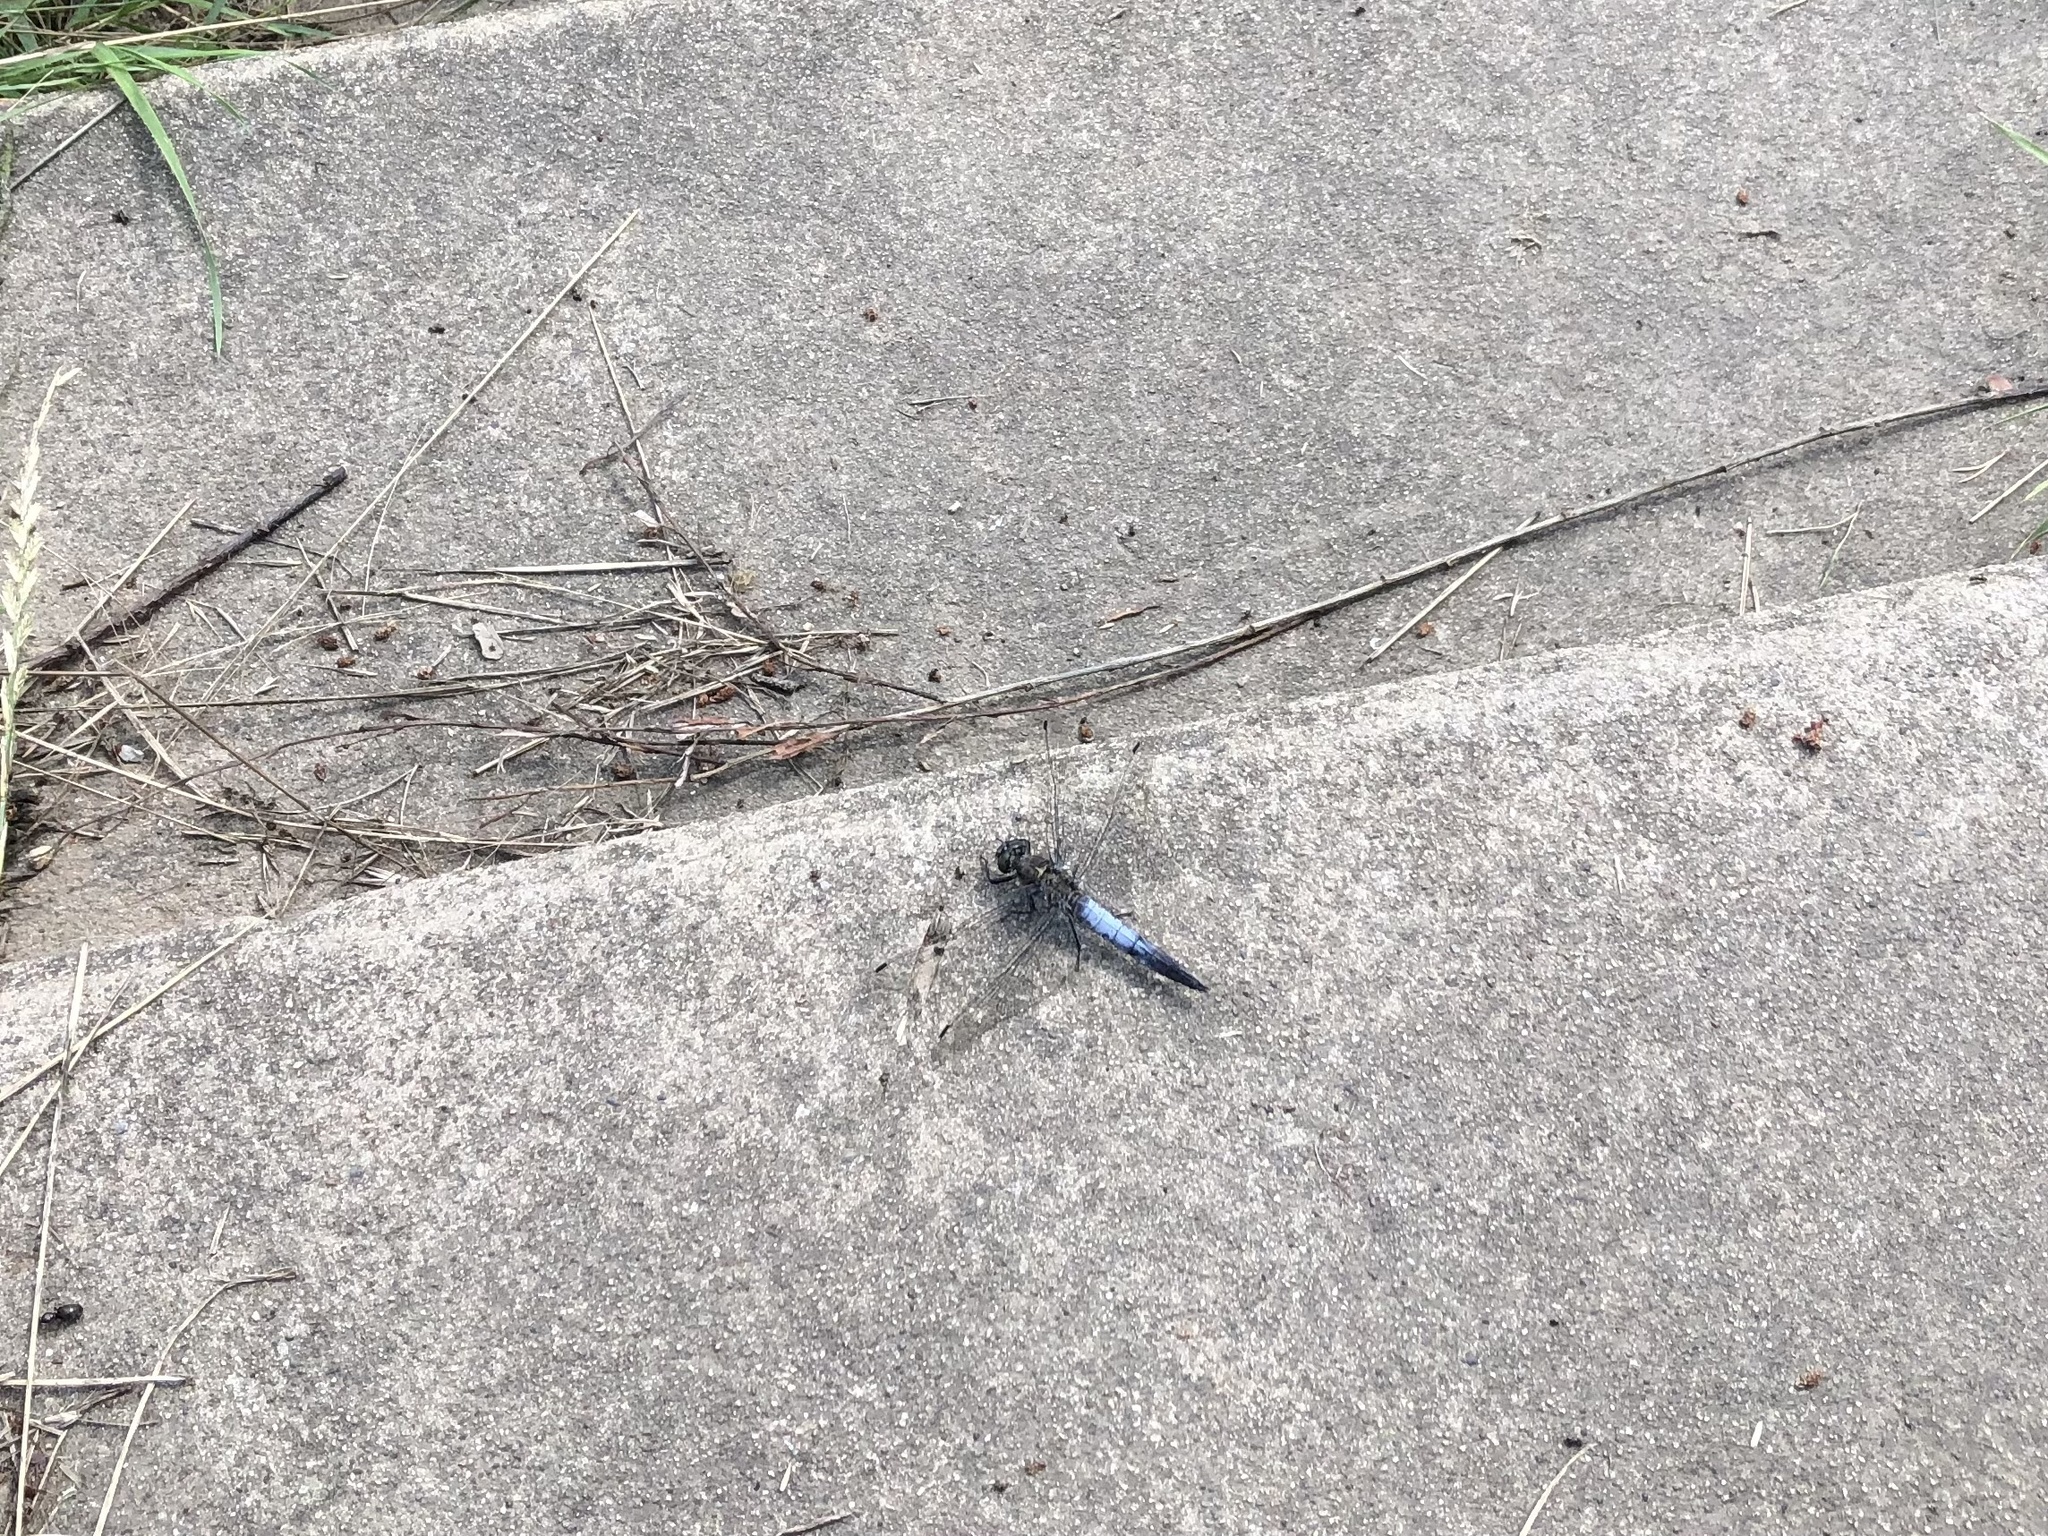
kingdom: Animalia
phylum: Arthropoda
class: Insecta
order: Odonata
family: Libellulidae
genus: Orthetrum
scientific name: Orthetrum cancellatum
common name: Black-tailed skimmer
